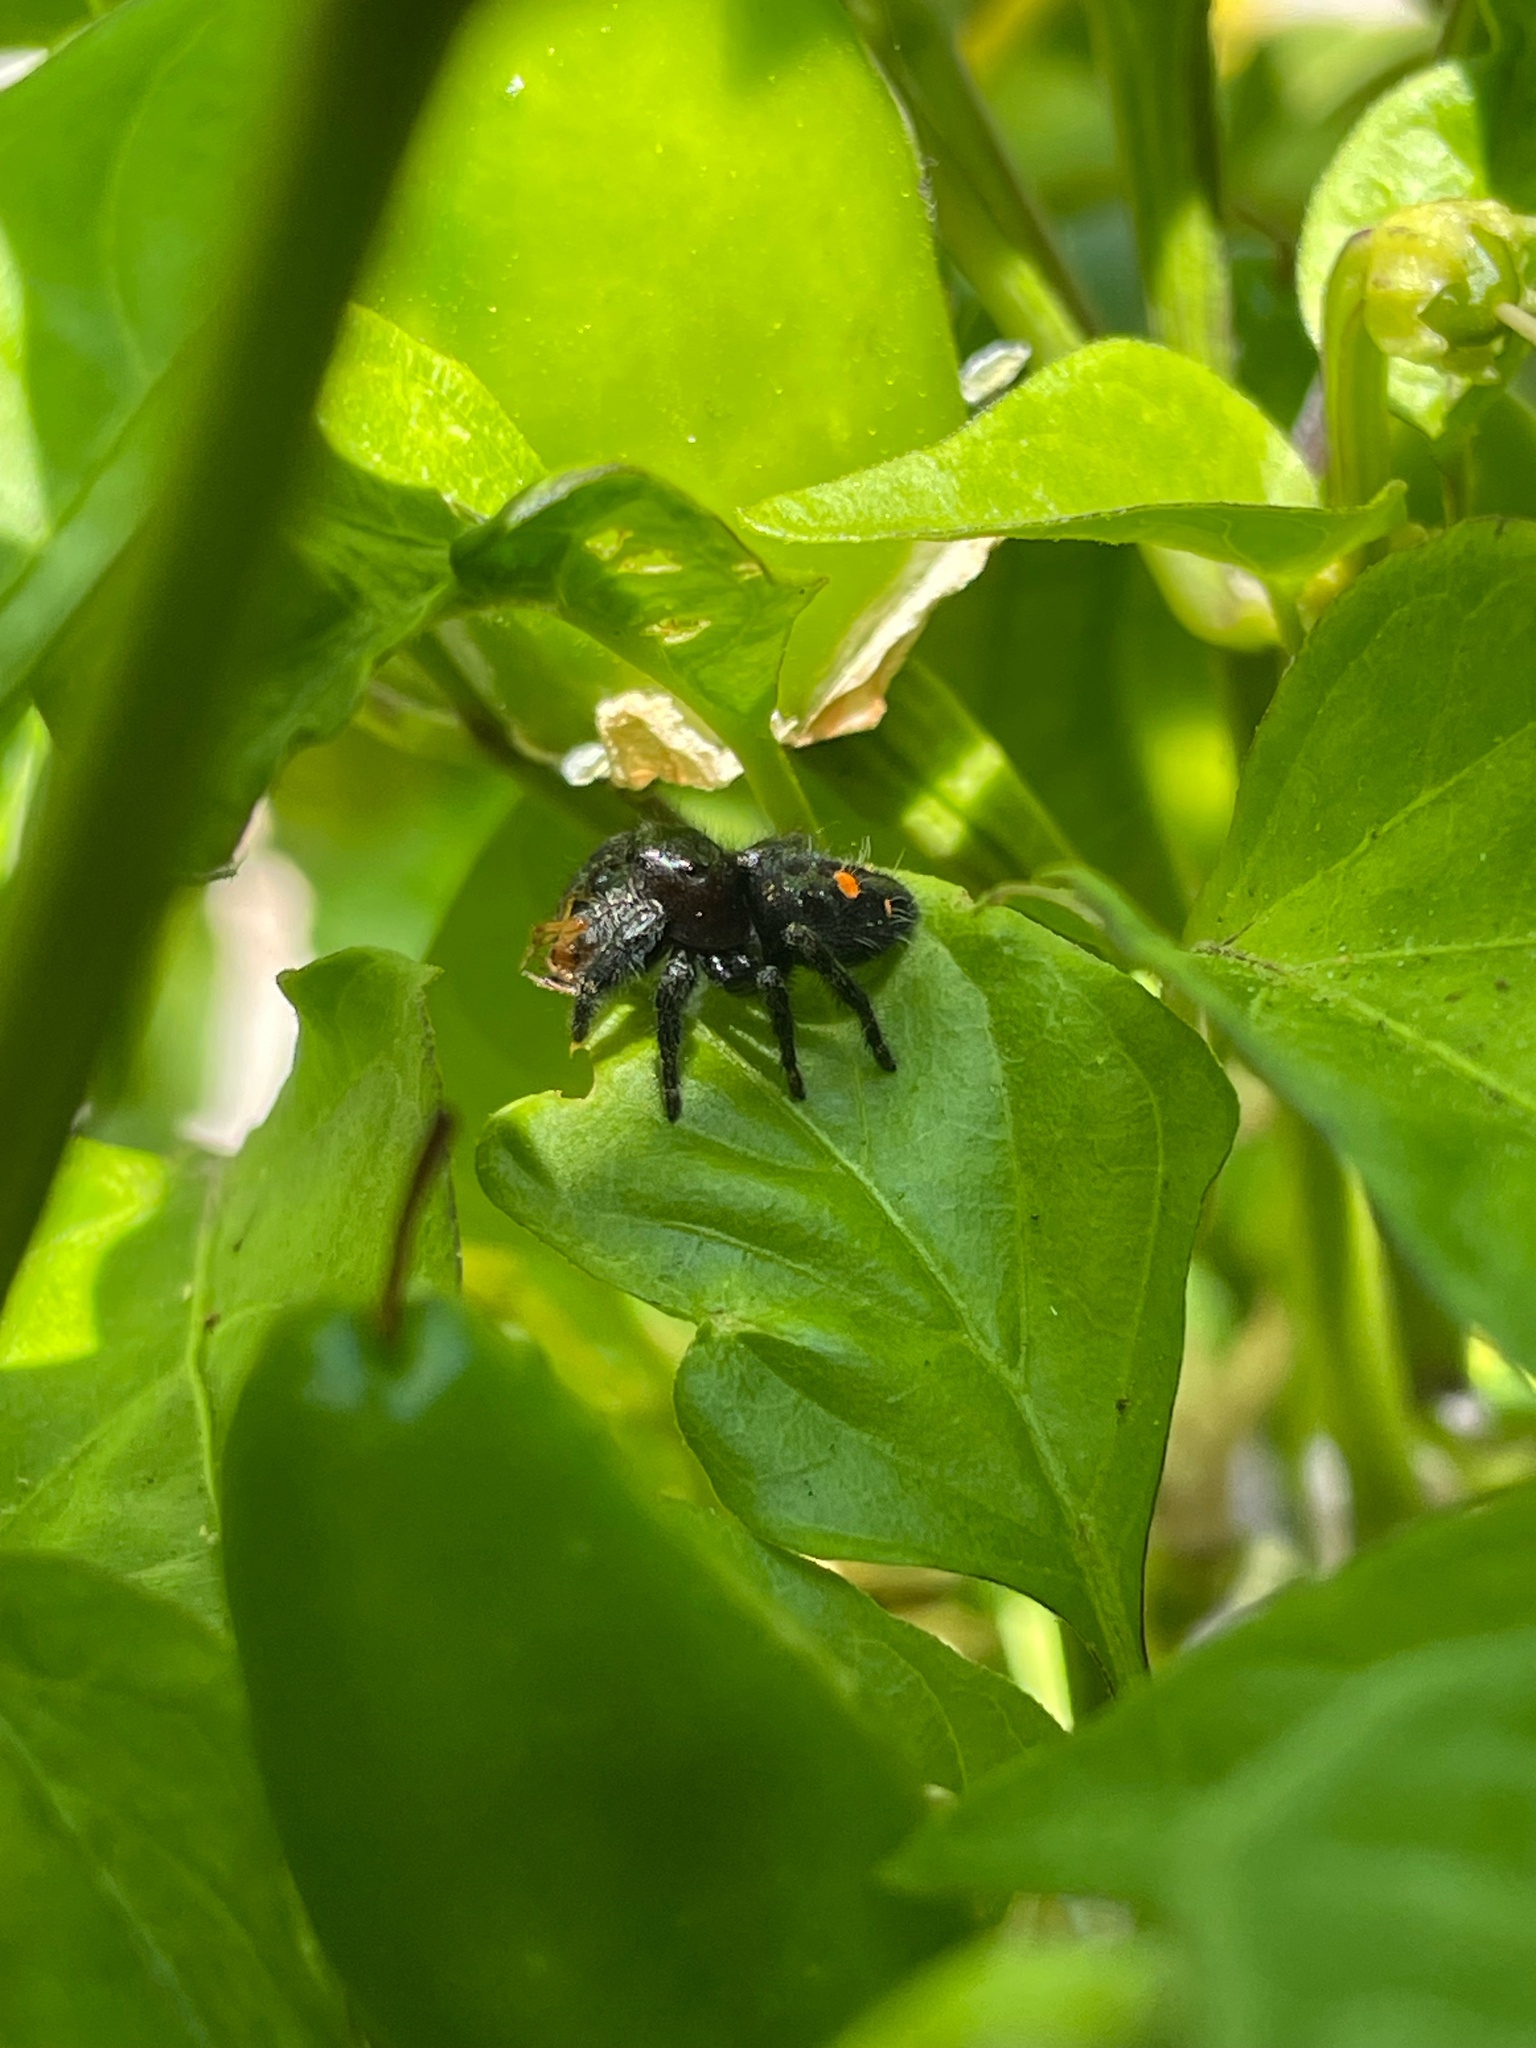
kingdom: Animalia
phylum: Arthropoda
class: Arachnida
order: Araneae
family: Salticidae
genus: Phidippus
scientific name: Phidippus audax
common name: Bold jumper
